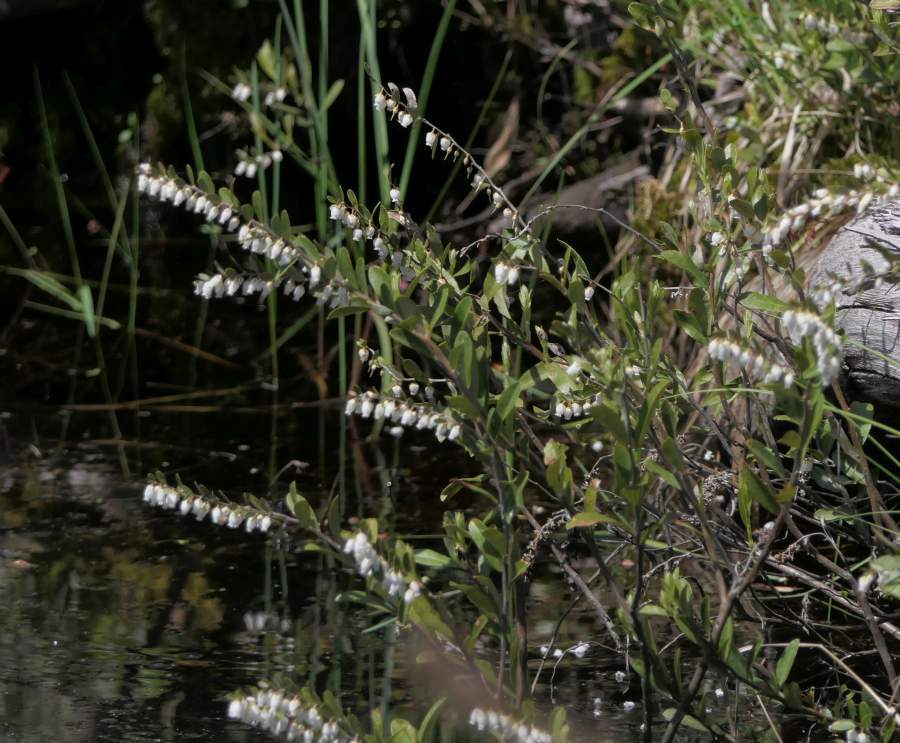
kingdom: Plantae
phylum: Tracheophyta
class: Magnoliopsida
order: Ericales
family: Ericaceae
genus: Chamaedaphne
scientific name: Chamaedaphne calyculata
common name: Leatherleaf
